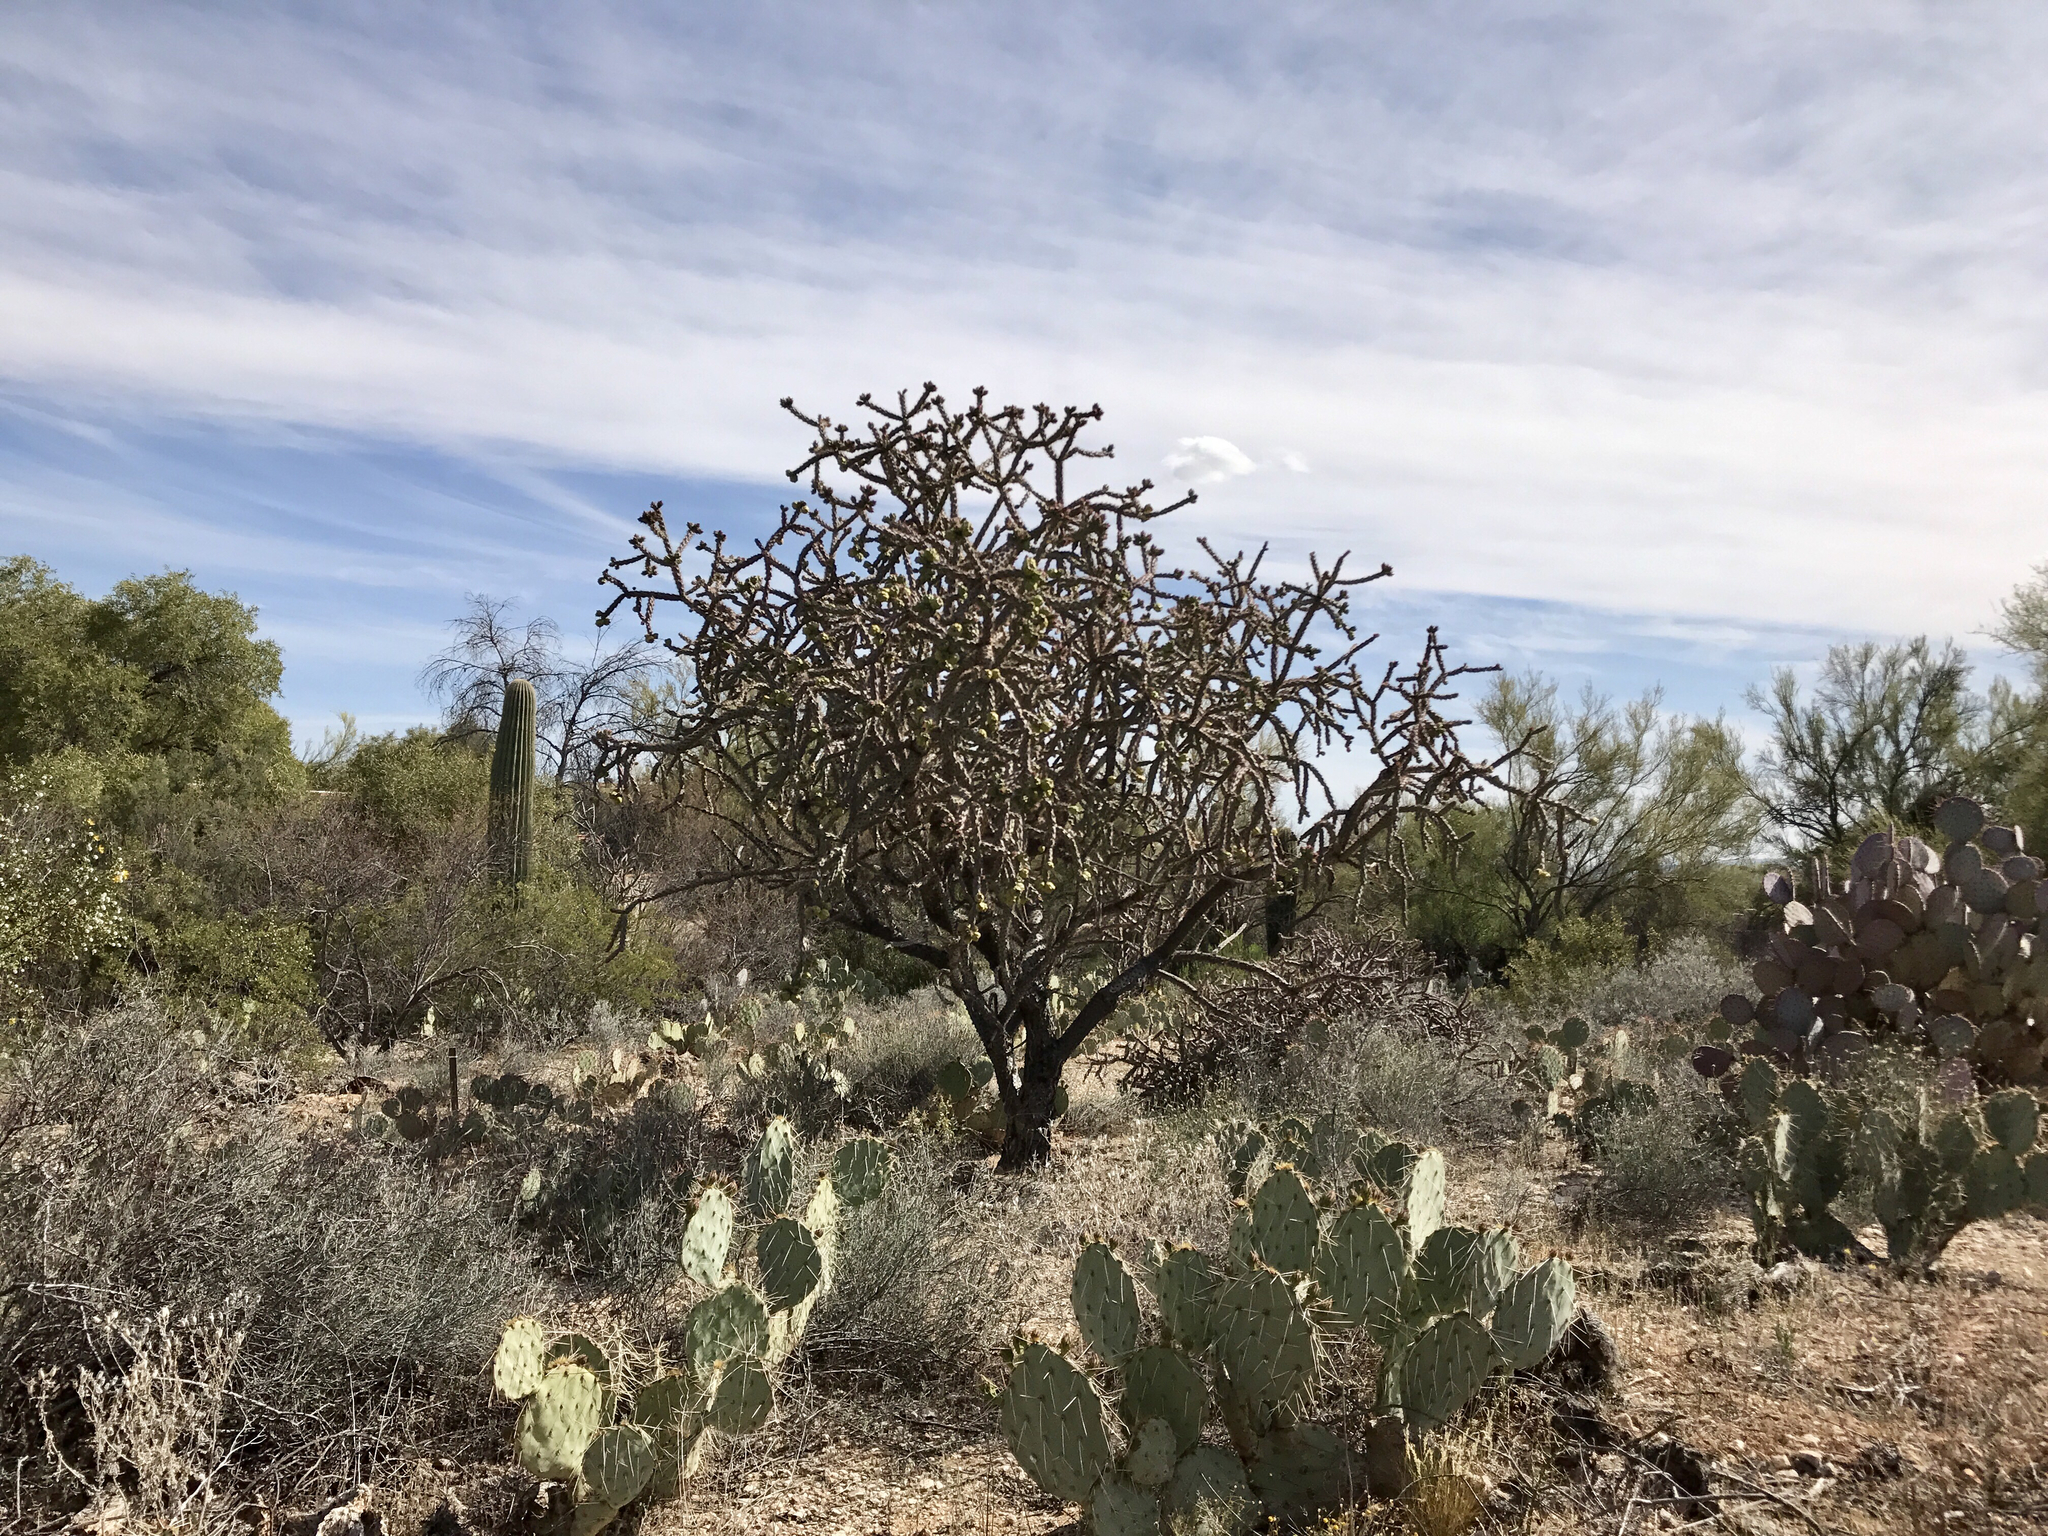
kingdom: Plantae
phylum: Tracheophyta
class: Magnoliopsida
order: Caryophyllales
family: Cactaceae
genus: Cylindropuntia
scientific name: Cylindropuntia thurberi
